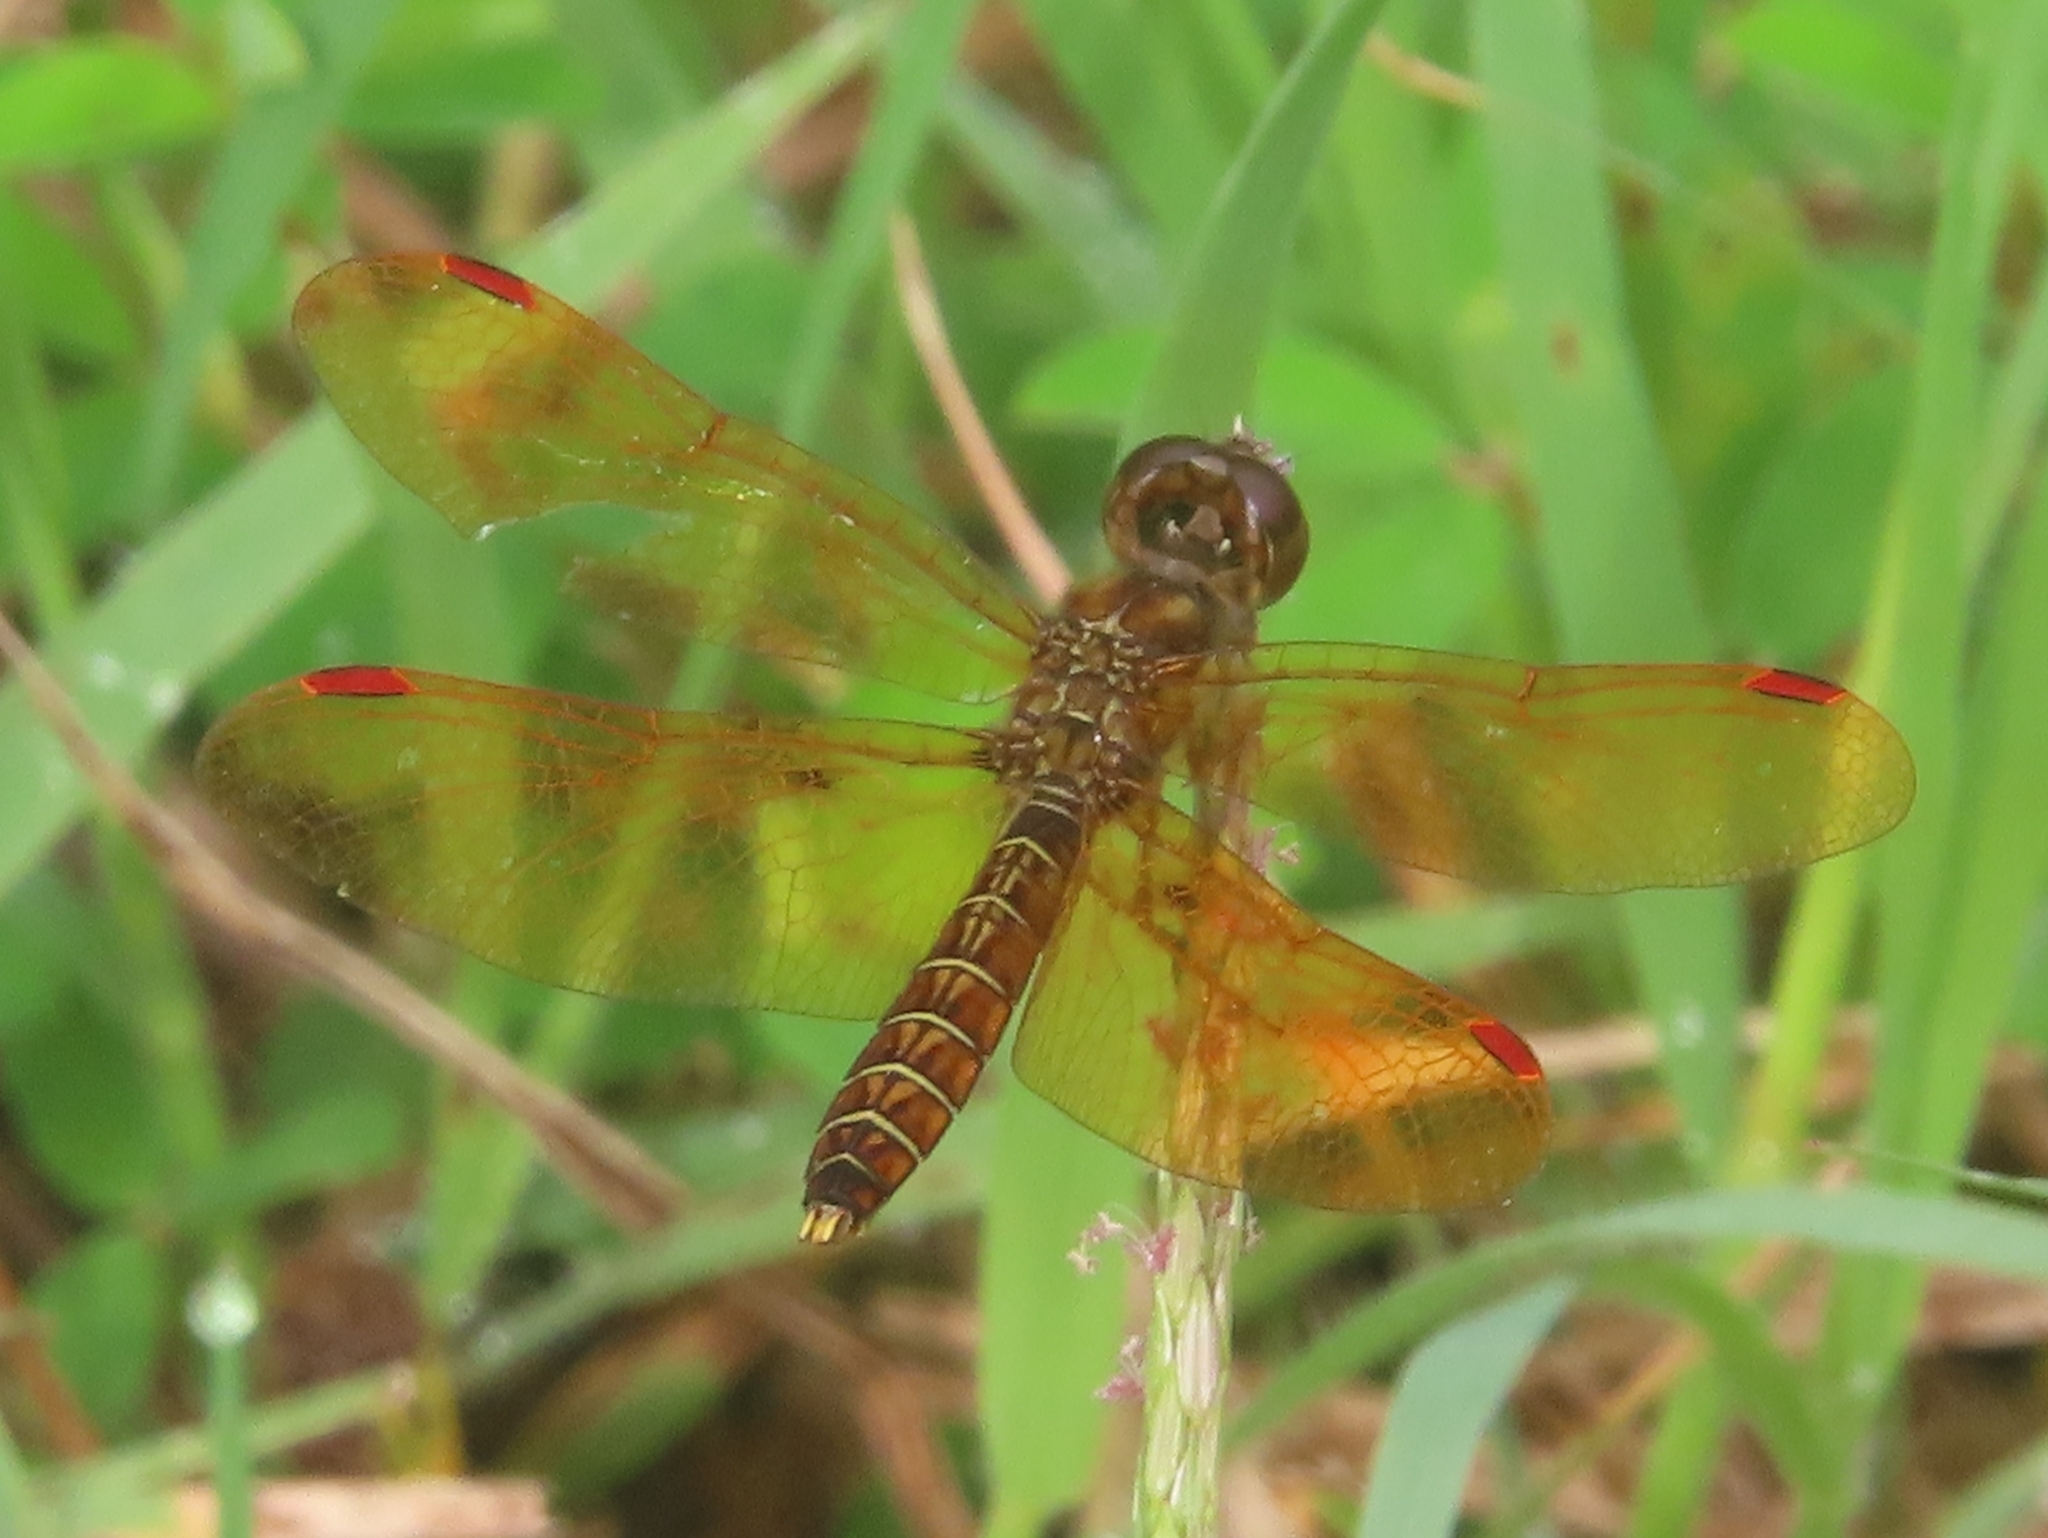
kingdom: Animalia
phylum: Arthropoda
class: Insecta
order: Odonata
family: Libellulidae
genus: Perithemis
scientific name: Perithemis tenera
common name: Eastern amberwing
